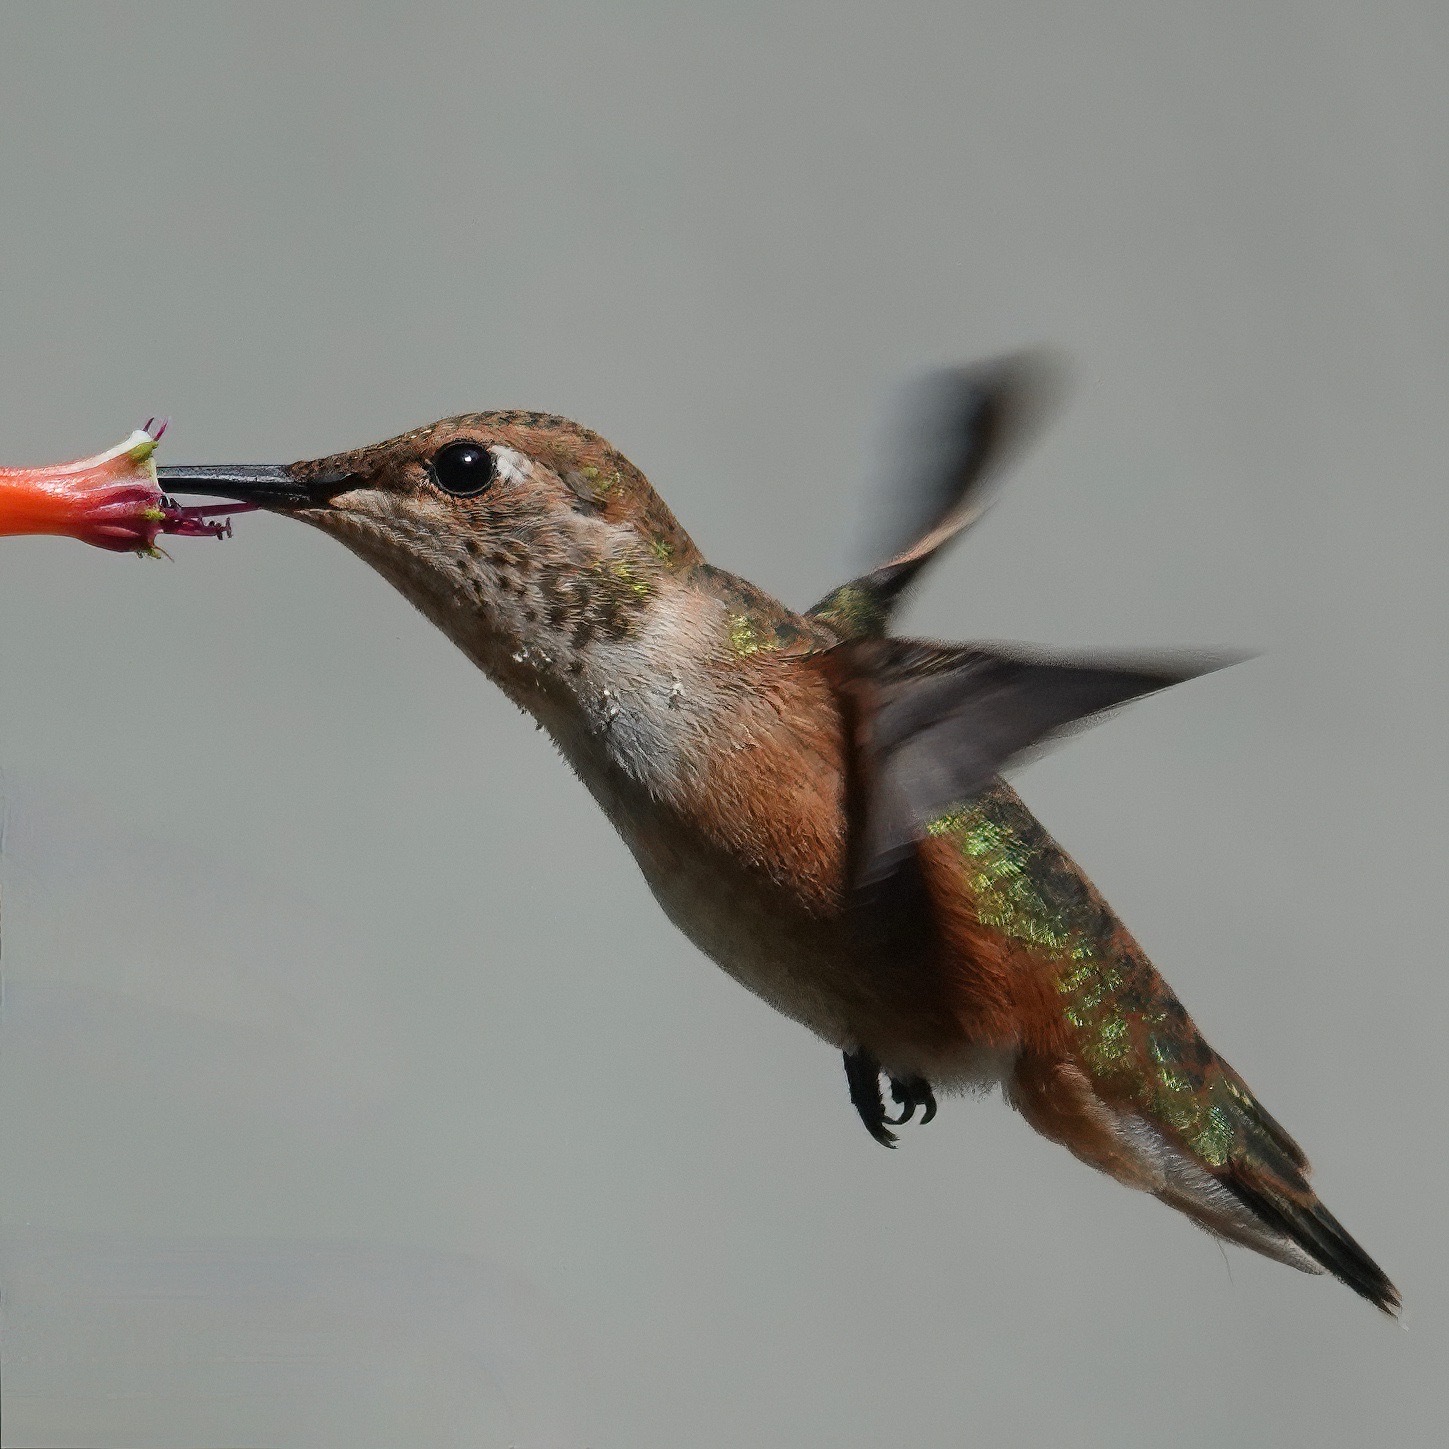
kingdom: Animalia
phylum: Chordata
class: Aves
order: Apodiformes
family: Trochilidae
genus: Selasphorus
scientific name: Selasphorus rufus
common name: Rufous hummingbird
